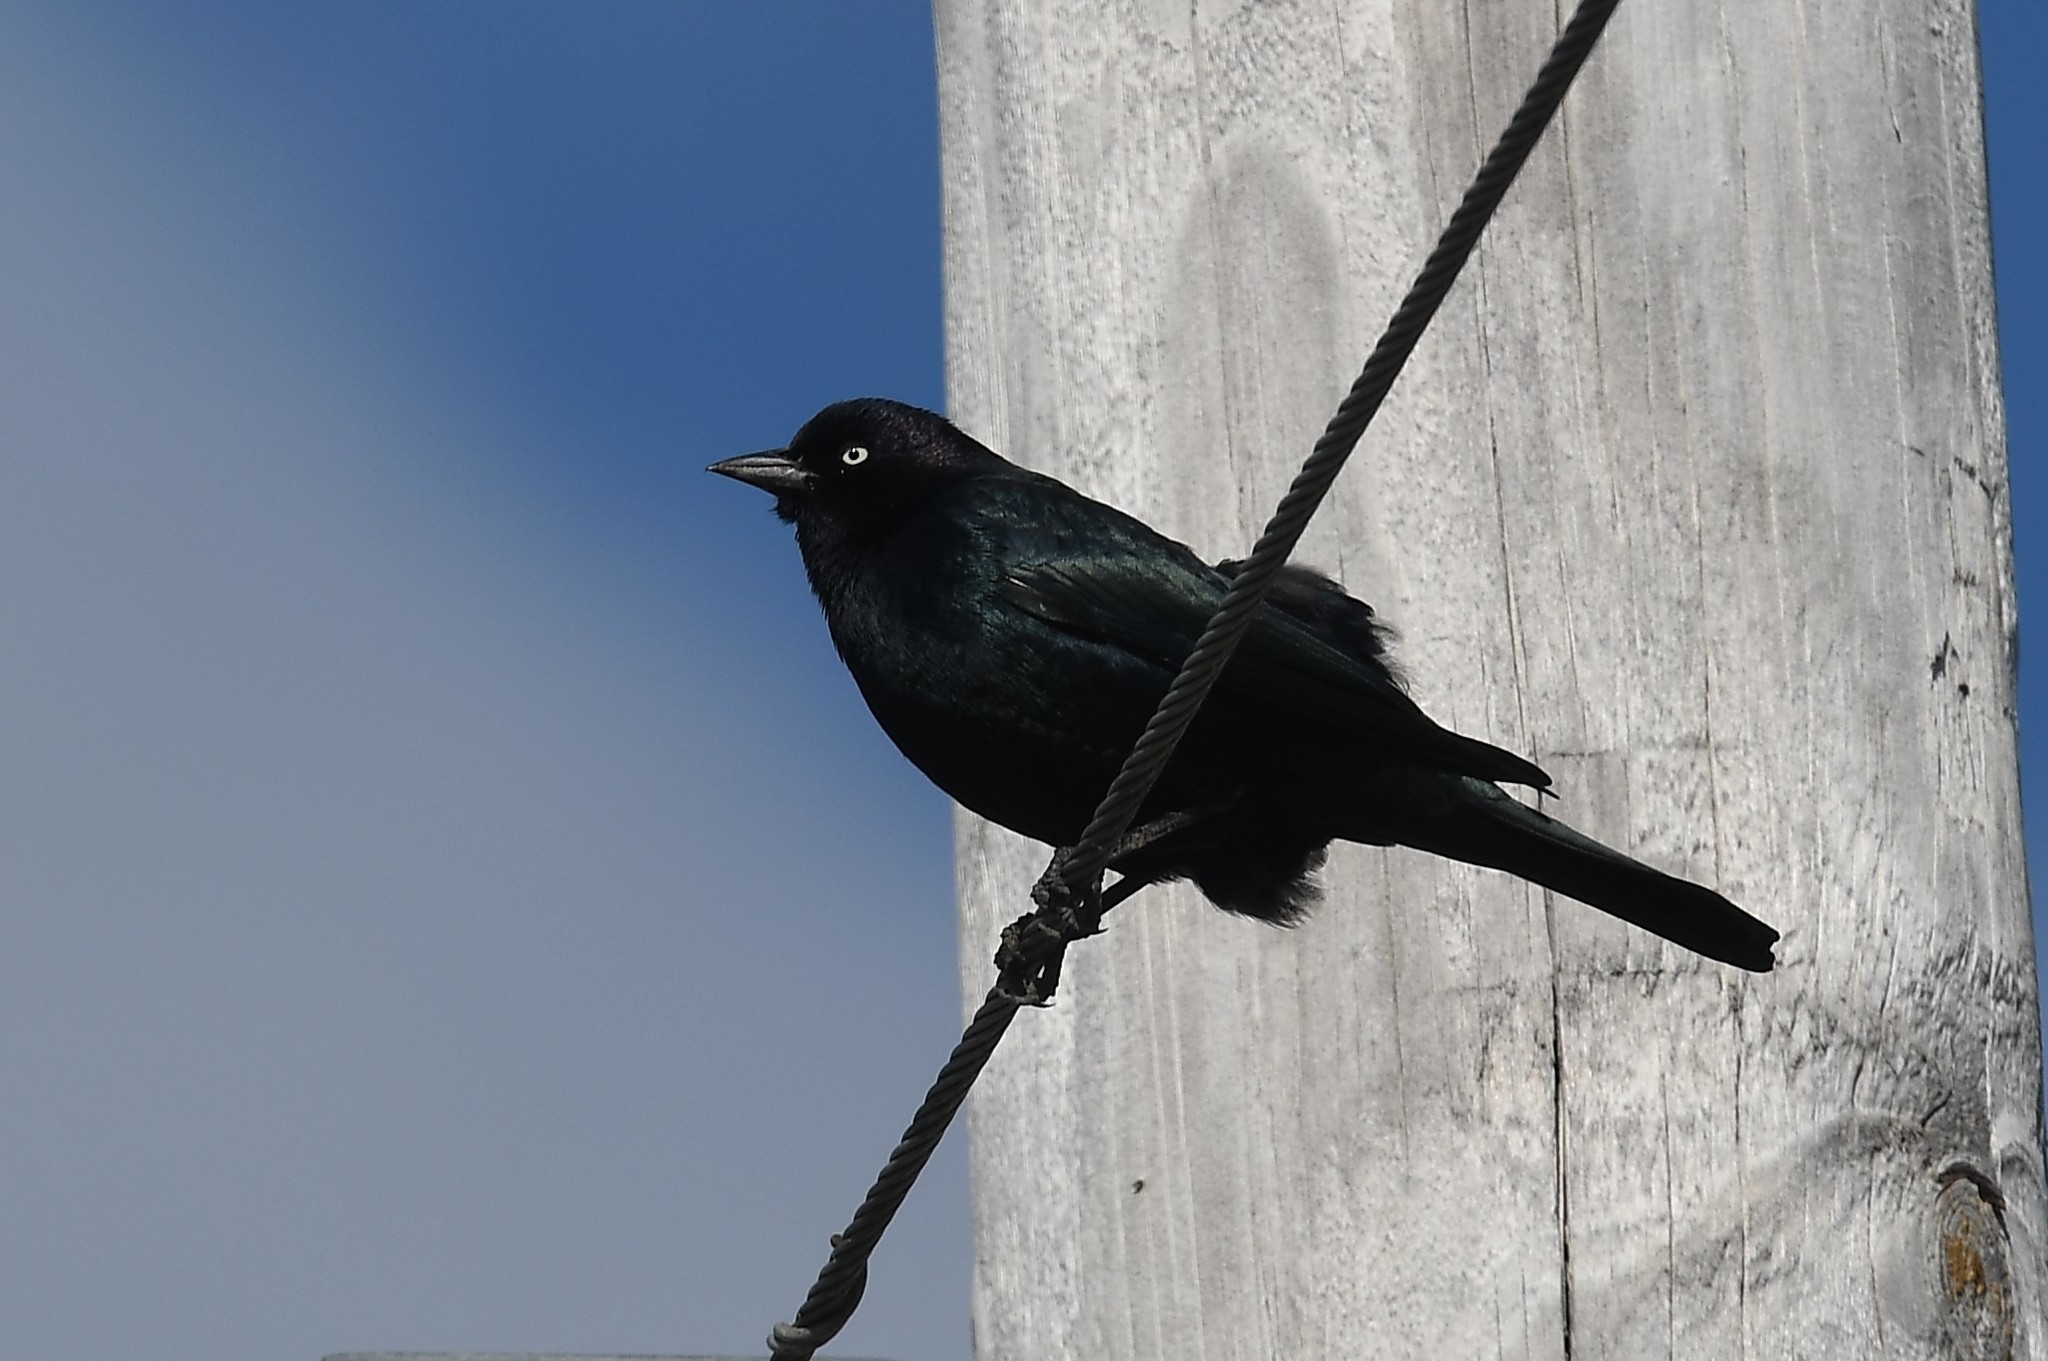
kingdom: Animalia
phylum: Chordata
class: Aves
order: Passeriformes
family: Icteridae
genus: Euphagus
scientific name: Euphagus cyanocephalus
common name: Brewer's blackbird
